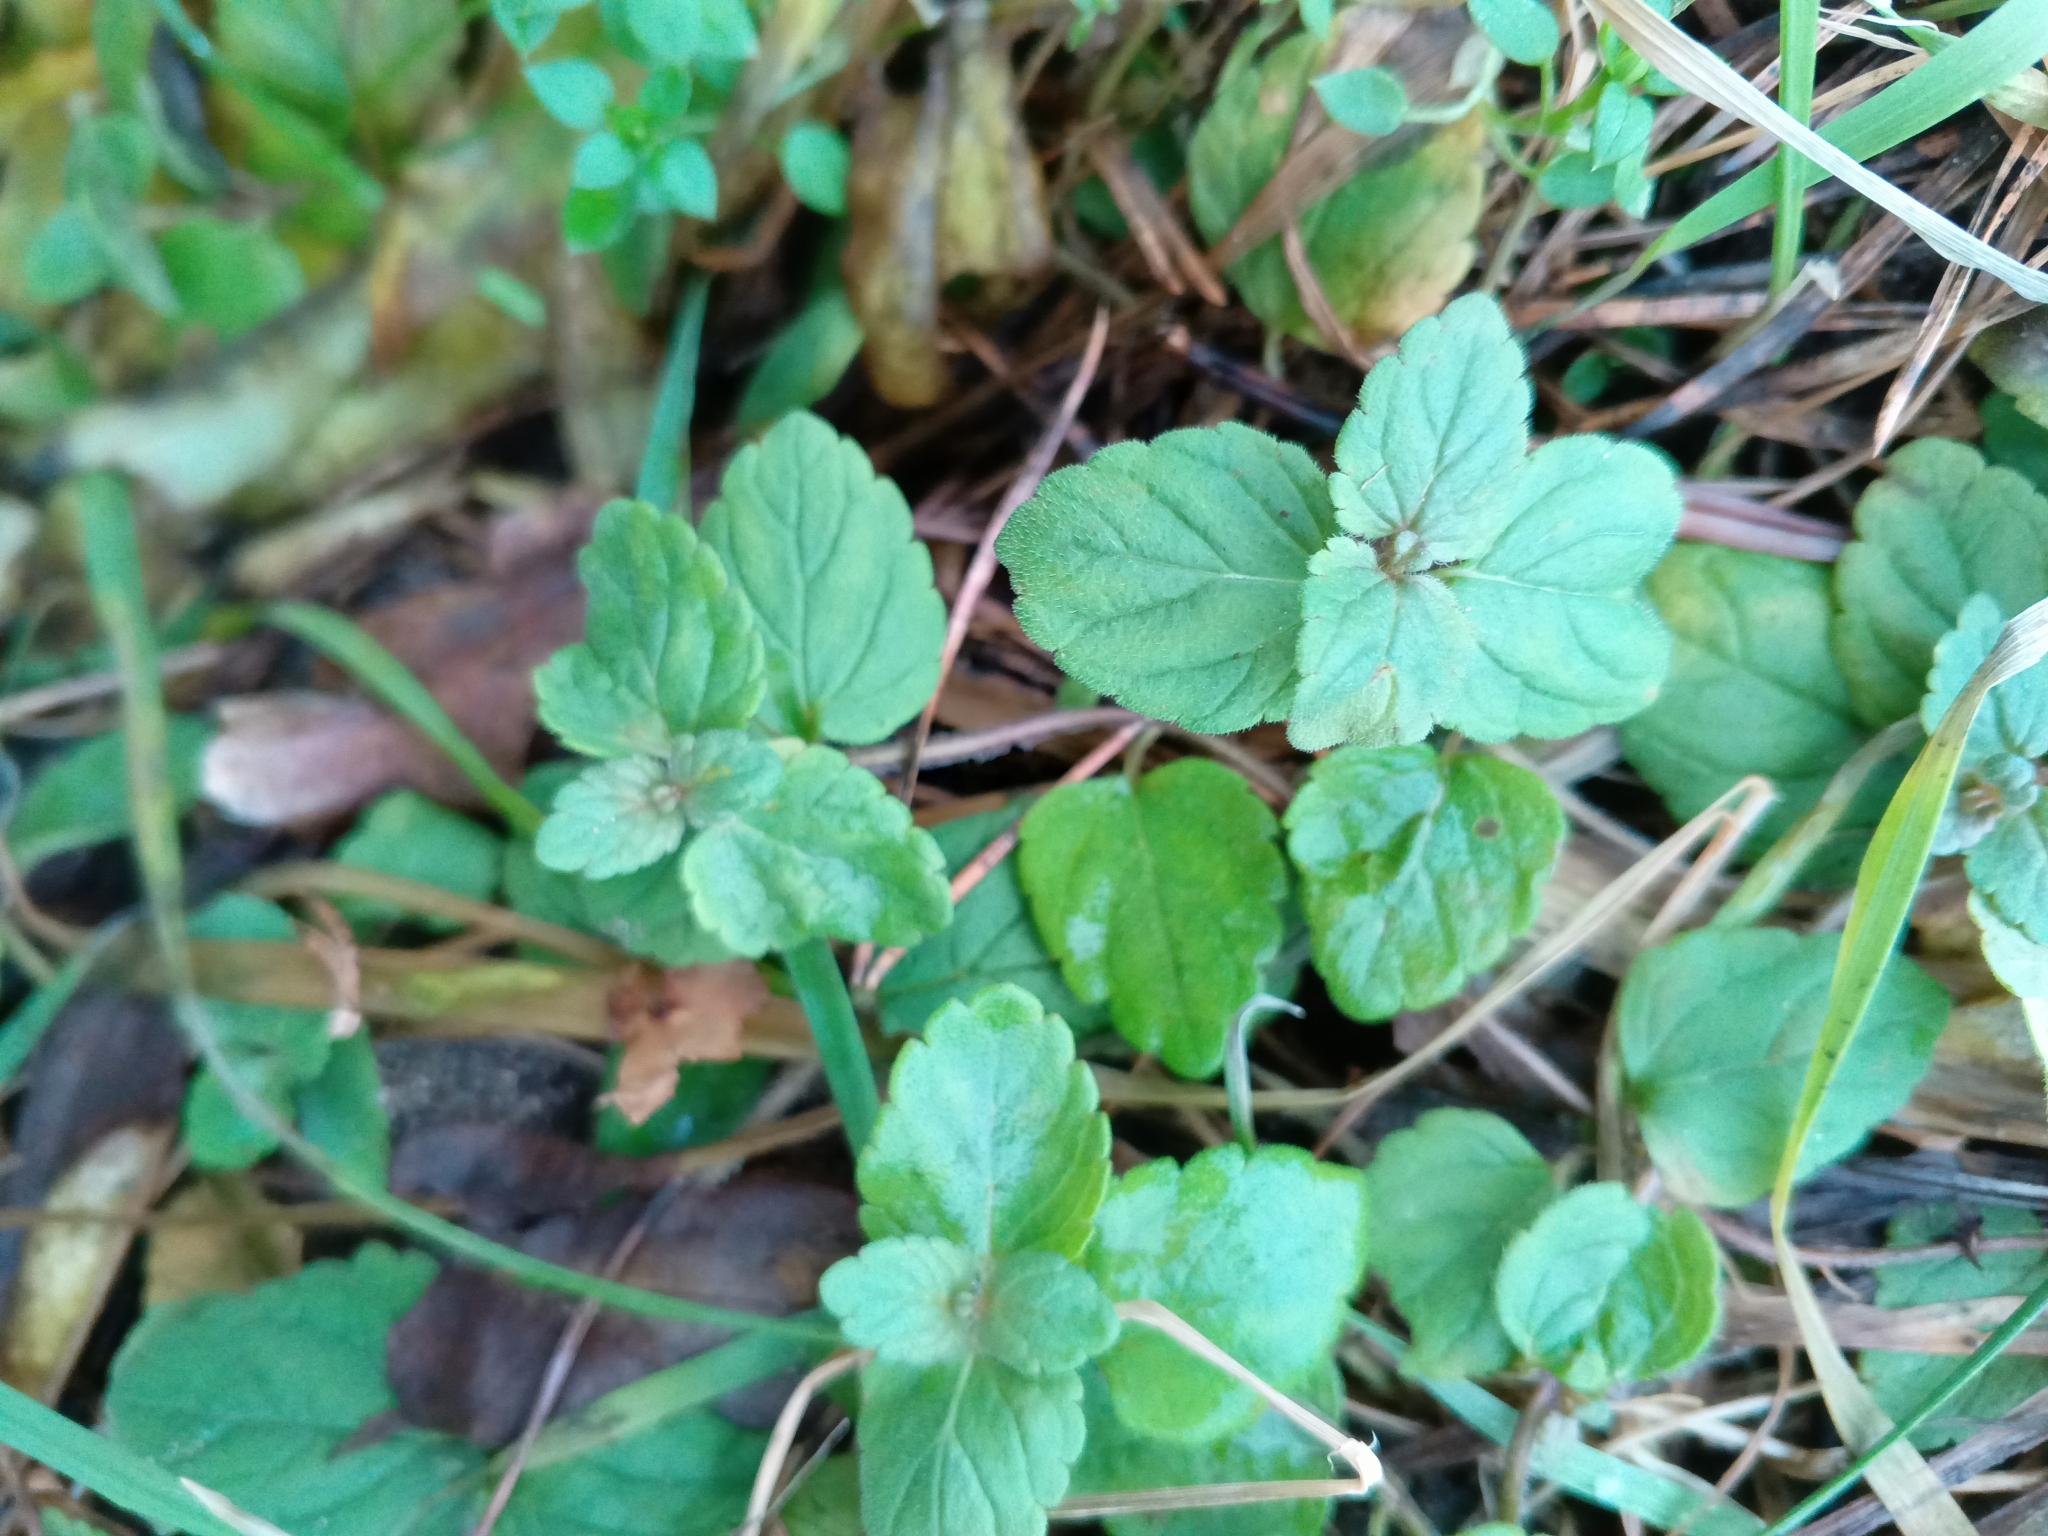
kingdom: Plantae
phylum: Tracheophyta
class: Magnoliopsida
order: Lamiales
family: Plantaginaceae
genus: Veronica
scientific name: Veronica chamaedrys
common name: Germander speedwell
